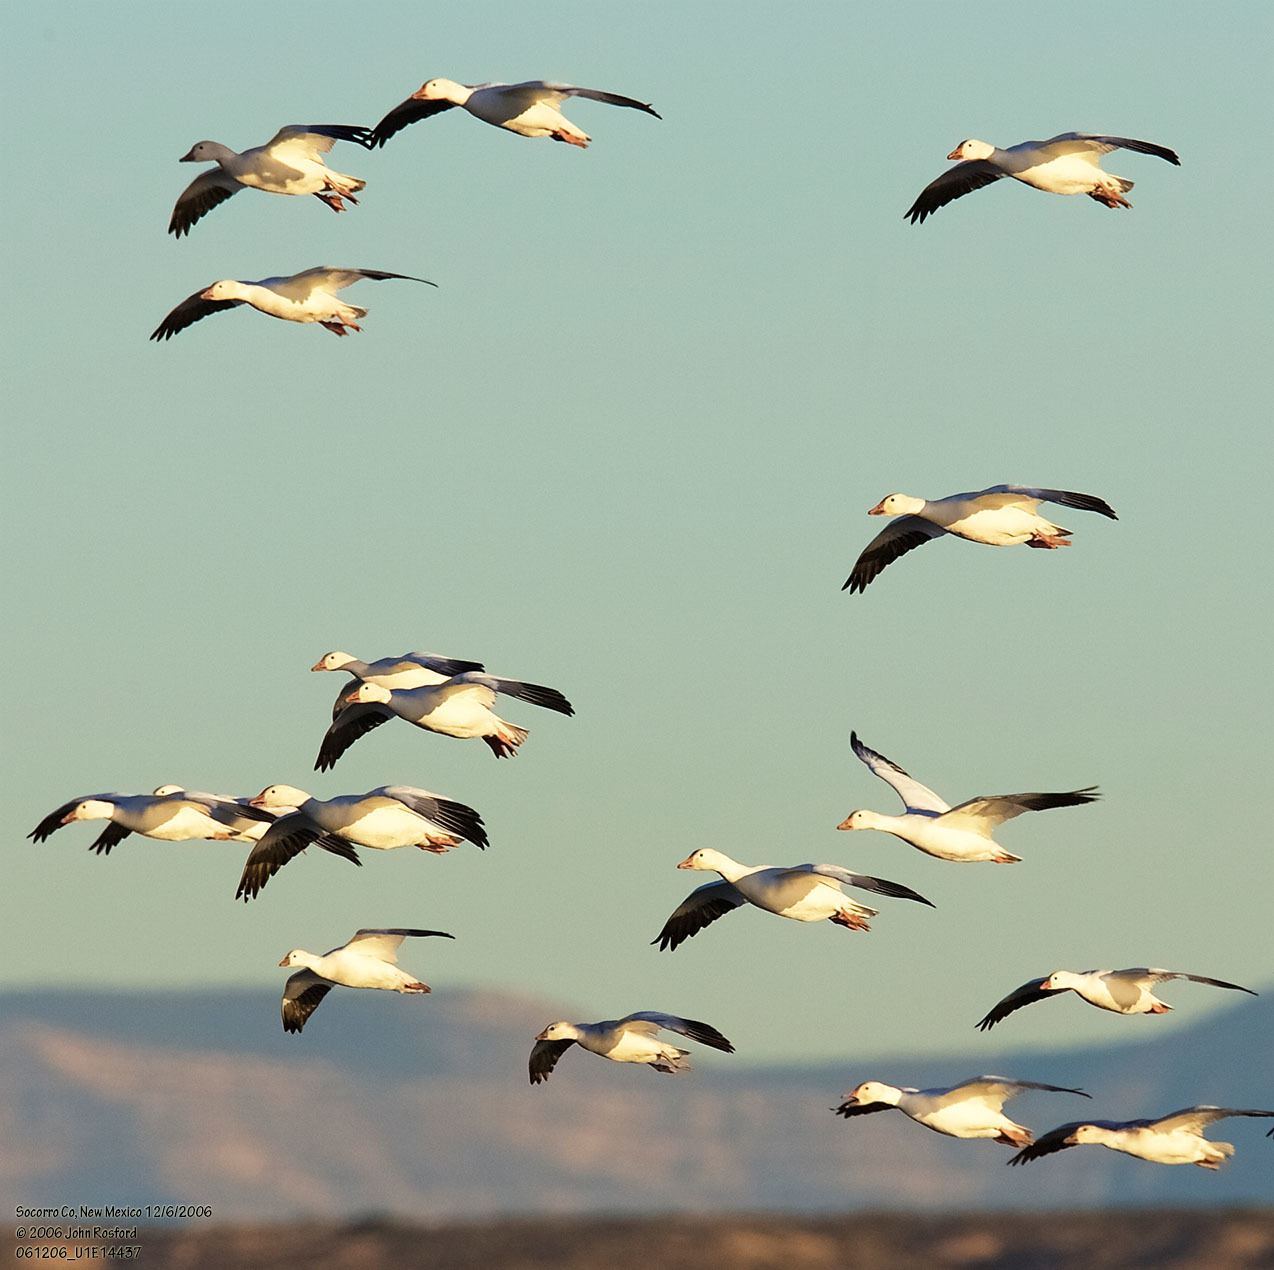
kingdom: Animalia
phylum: Chordata
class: Aves
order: Anseriformes
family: Anatidae
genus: Anser
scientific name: Anser caerulescens
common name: Snow goose
